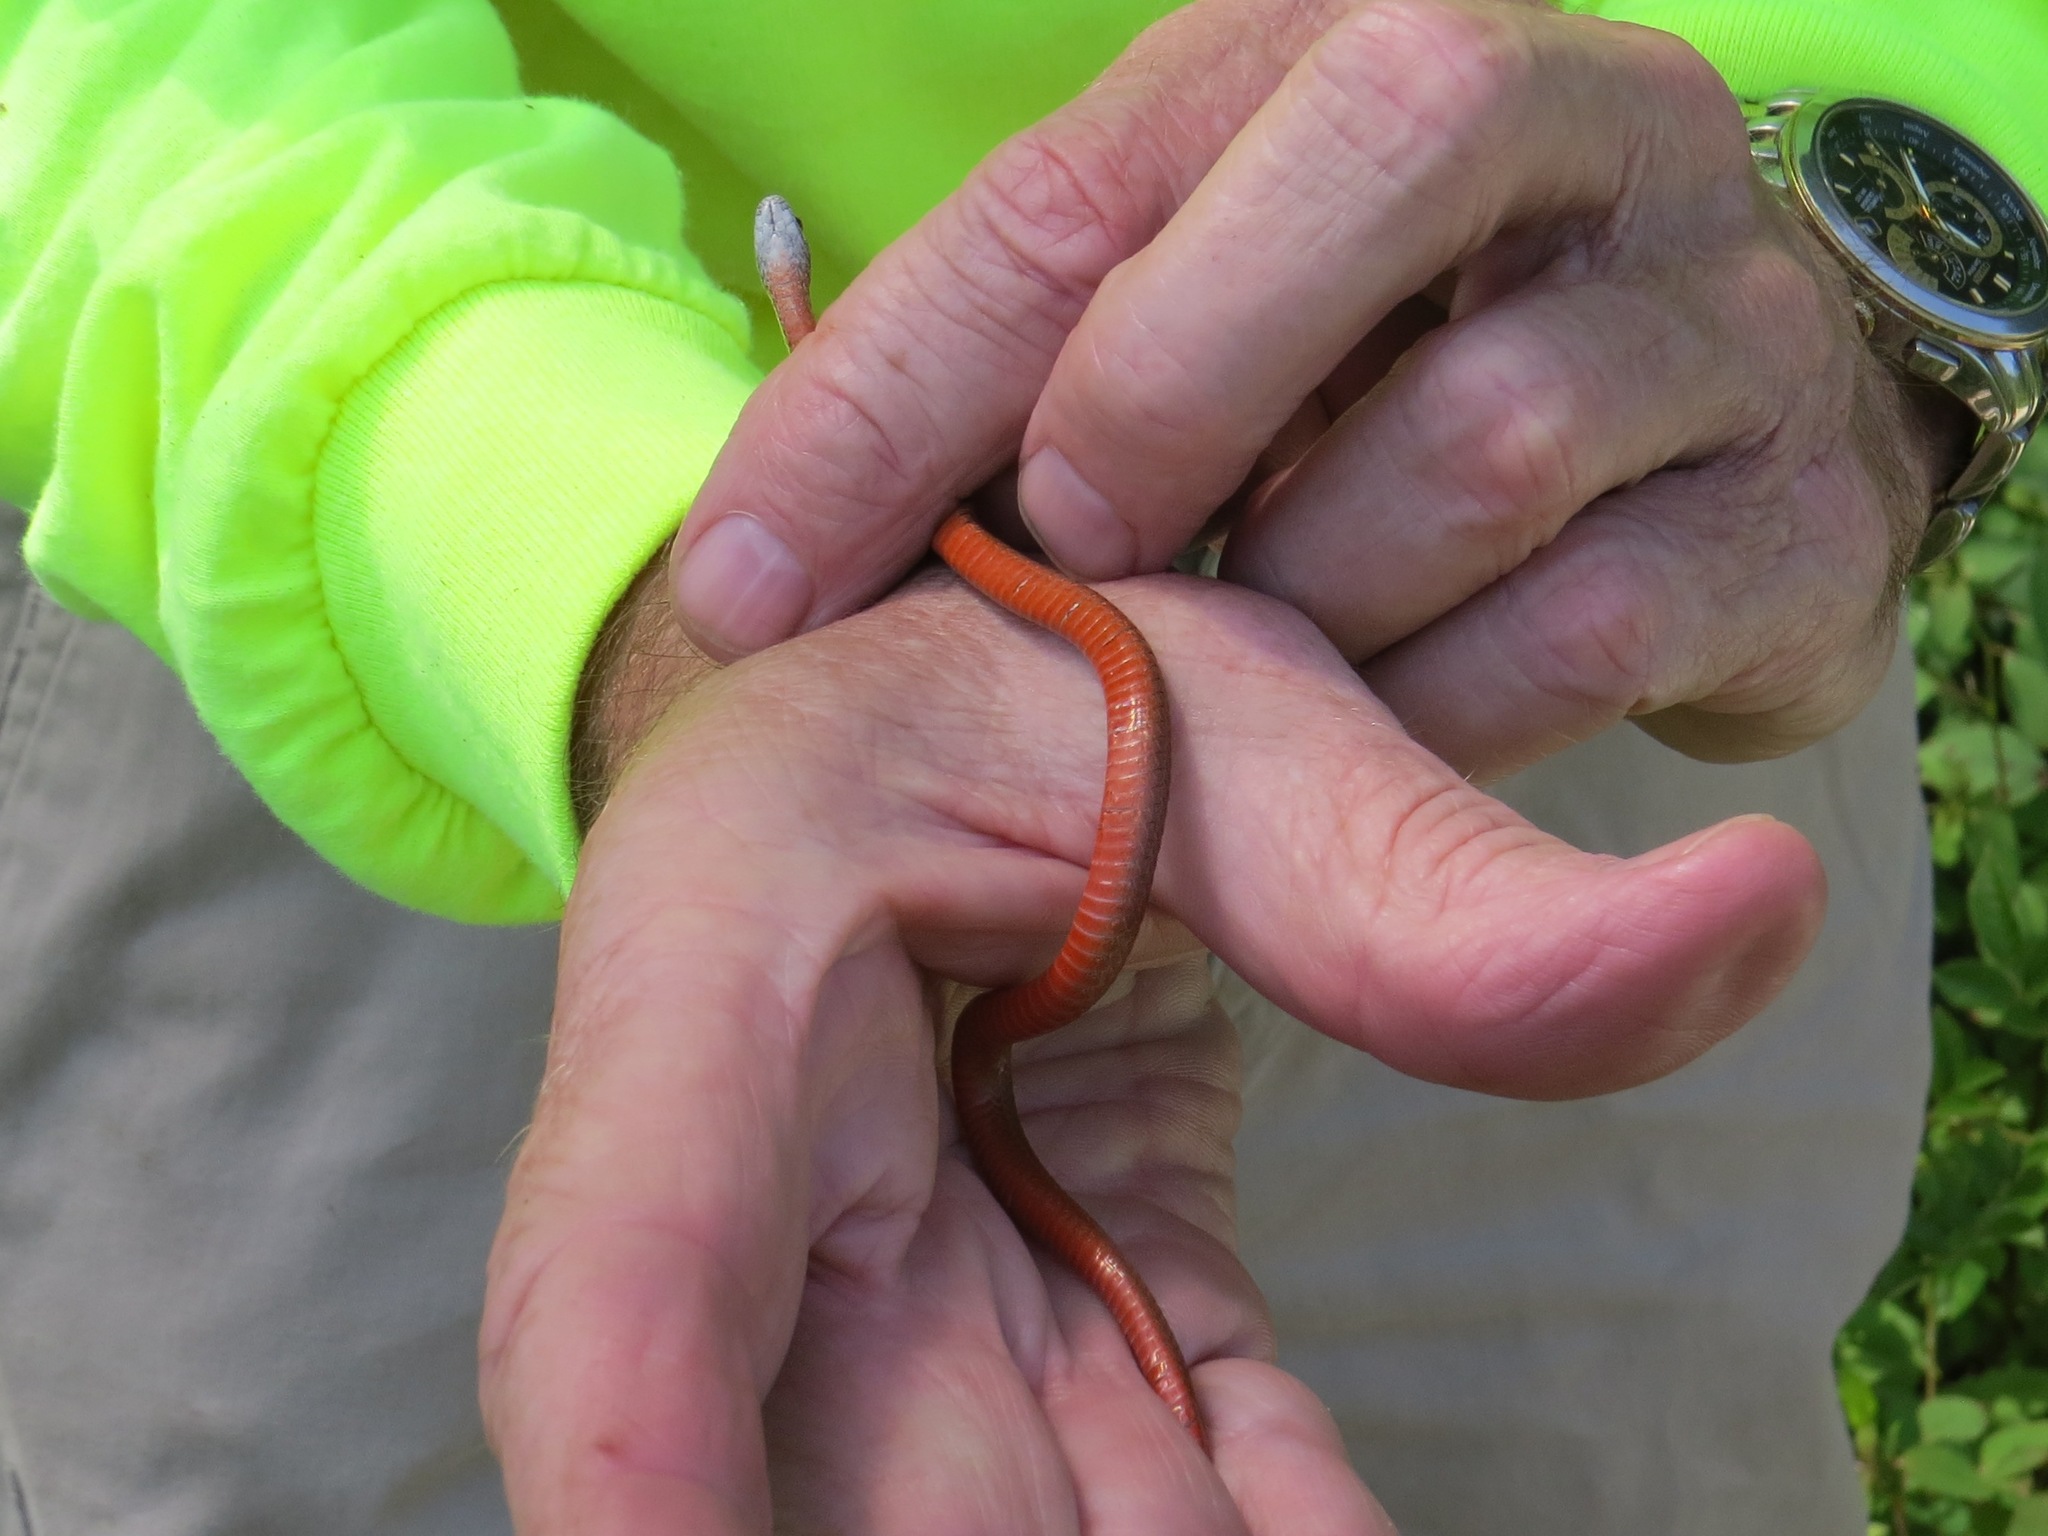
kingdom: Animalia
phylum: Chordata
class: Squamata
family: Colubridae
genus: Storeria
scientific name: Storeria occipitomaculata
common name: Redbelly snake
